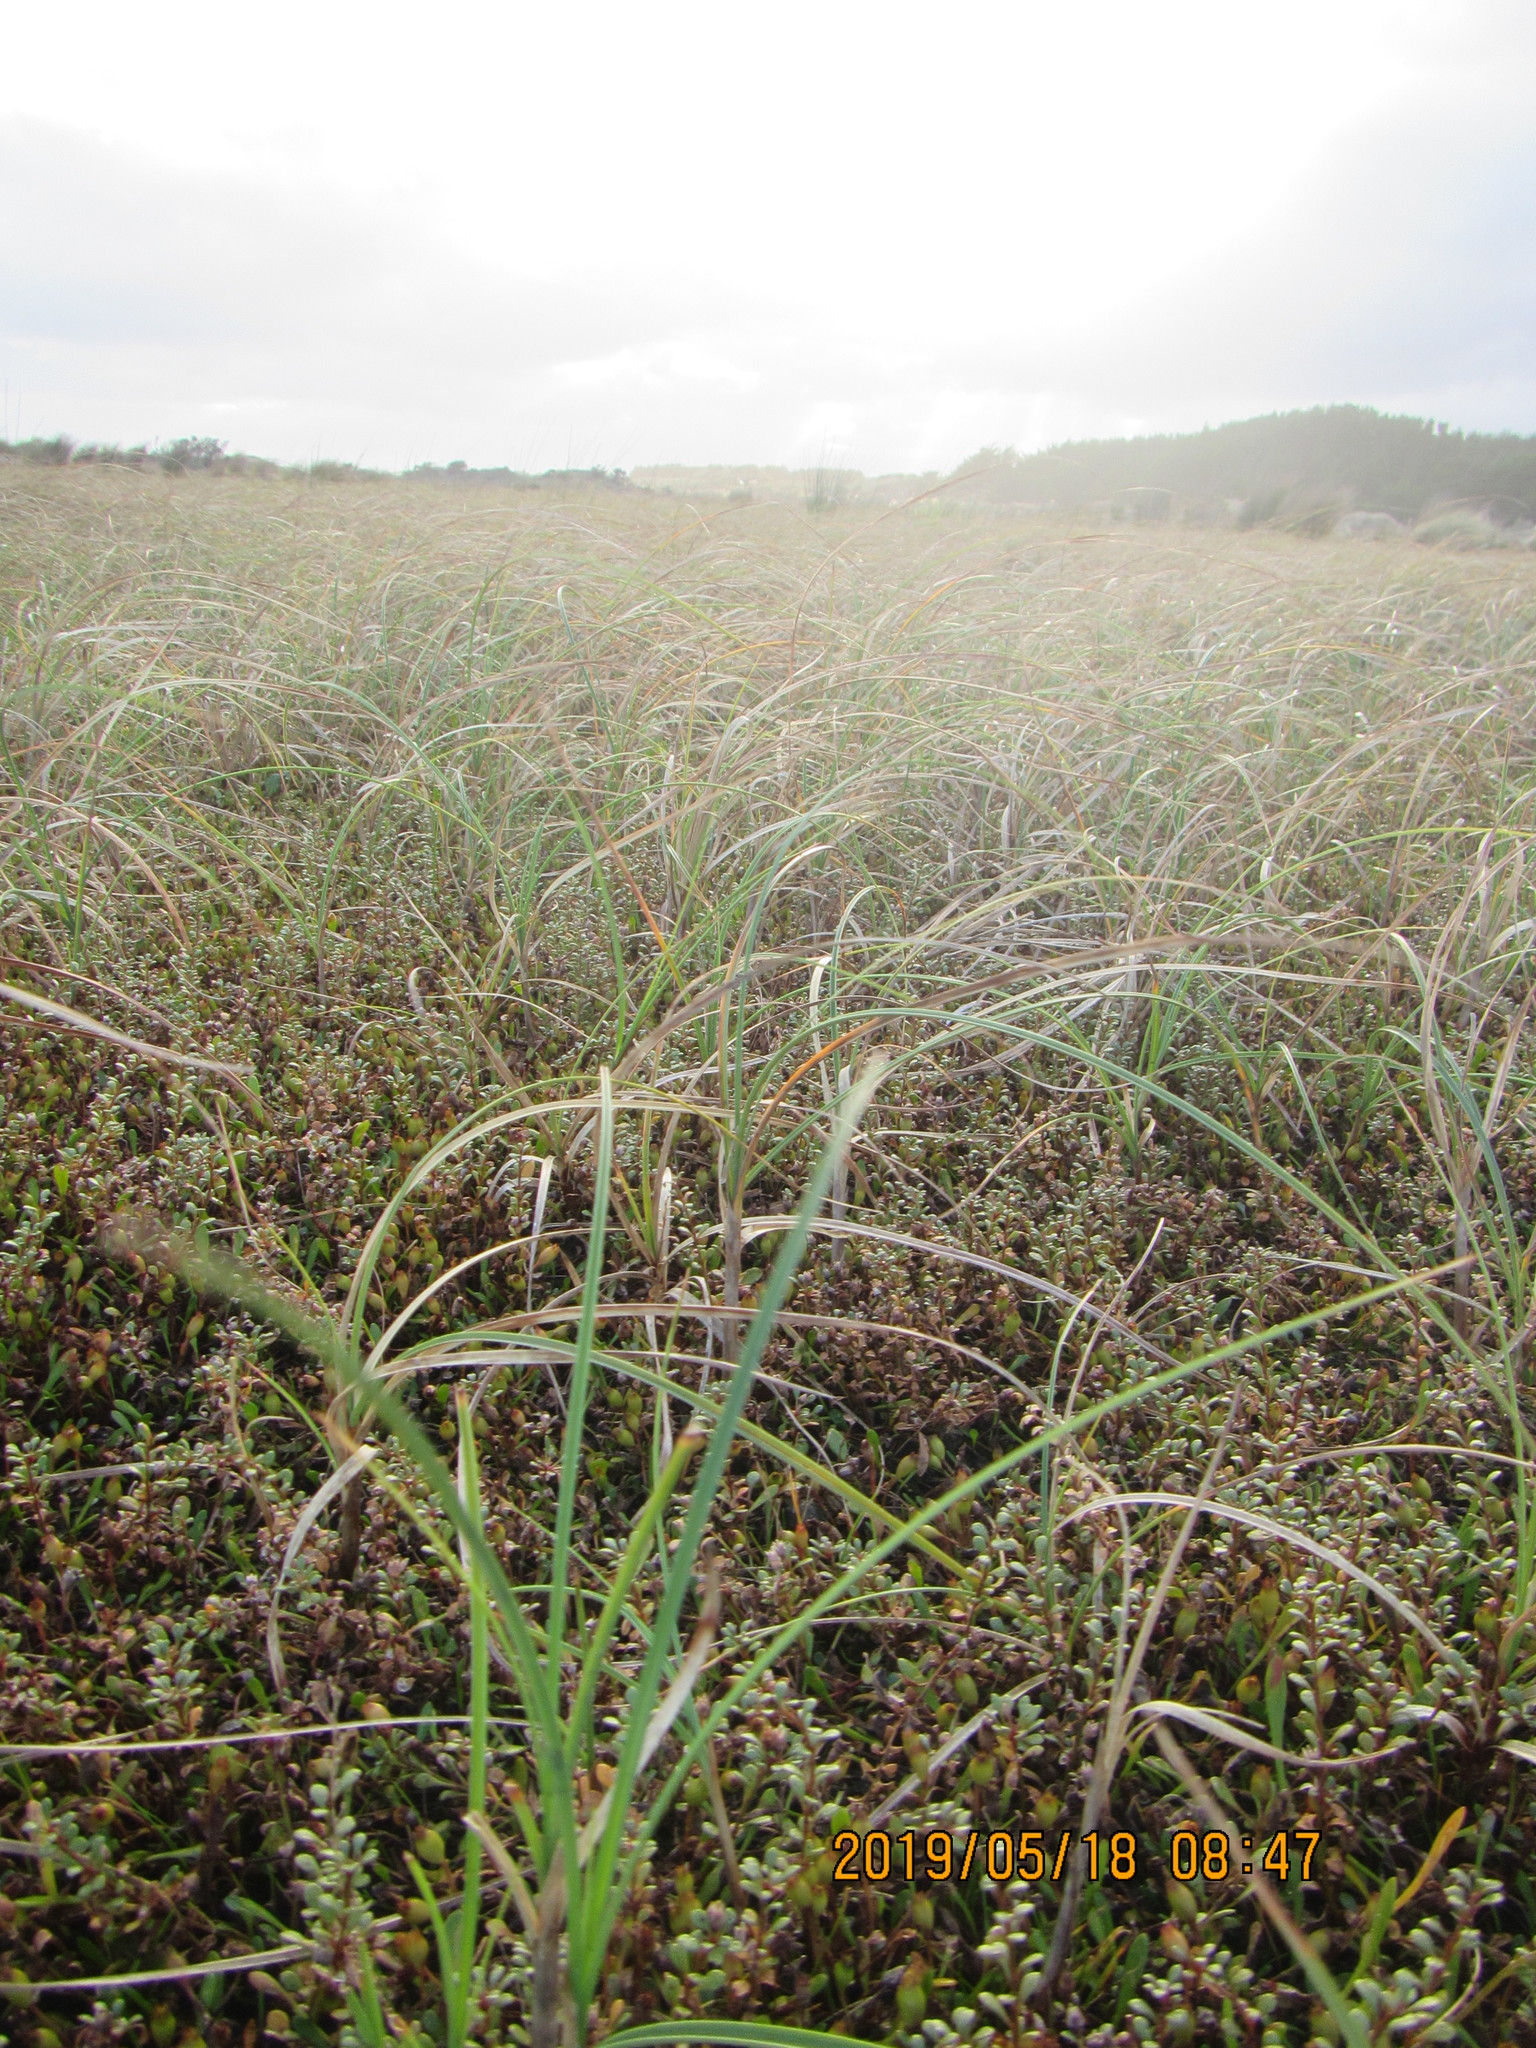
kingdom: Plantae
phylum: Tracheophyta
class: Liliopsida
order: Poales
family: Cyperaceae
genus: Carex
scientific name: Carex pumila
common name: Dwarf sedge
